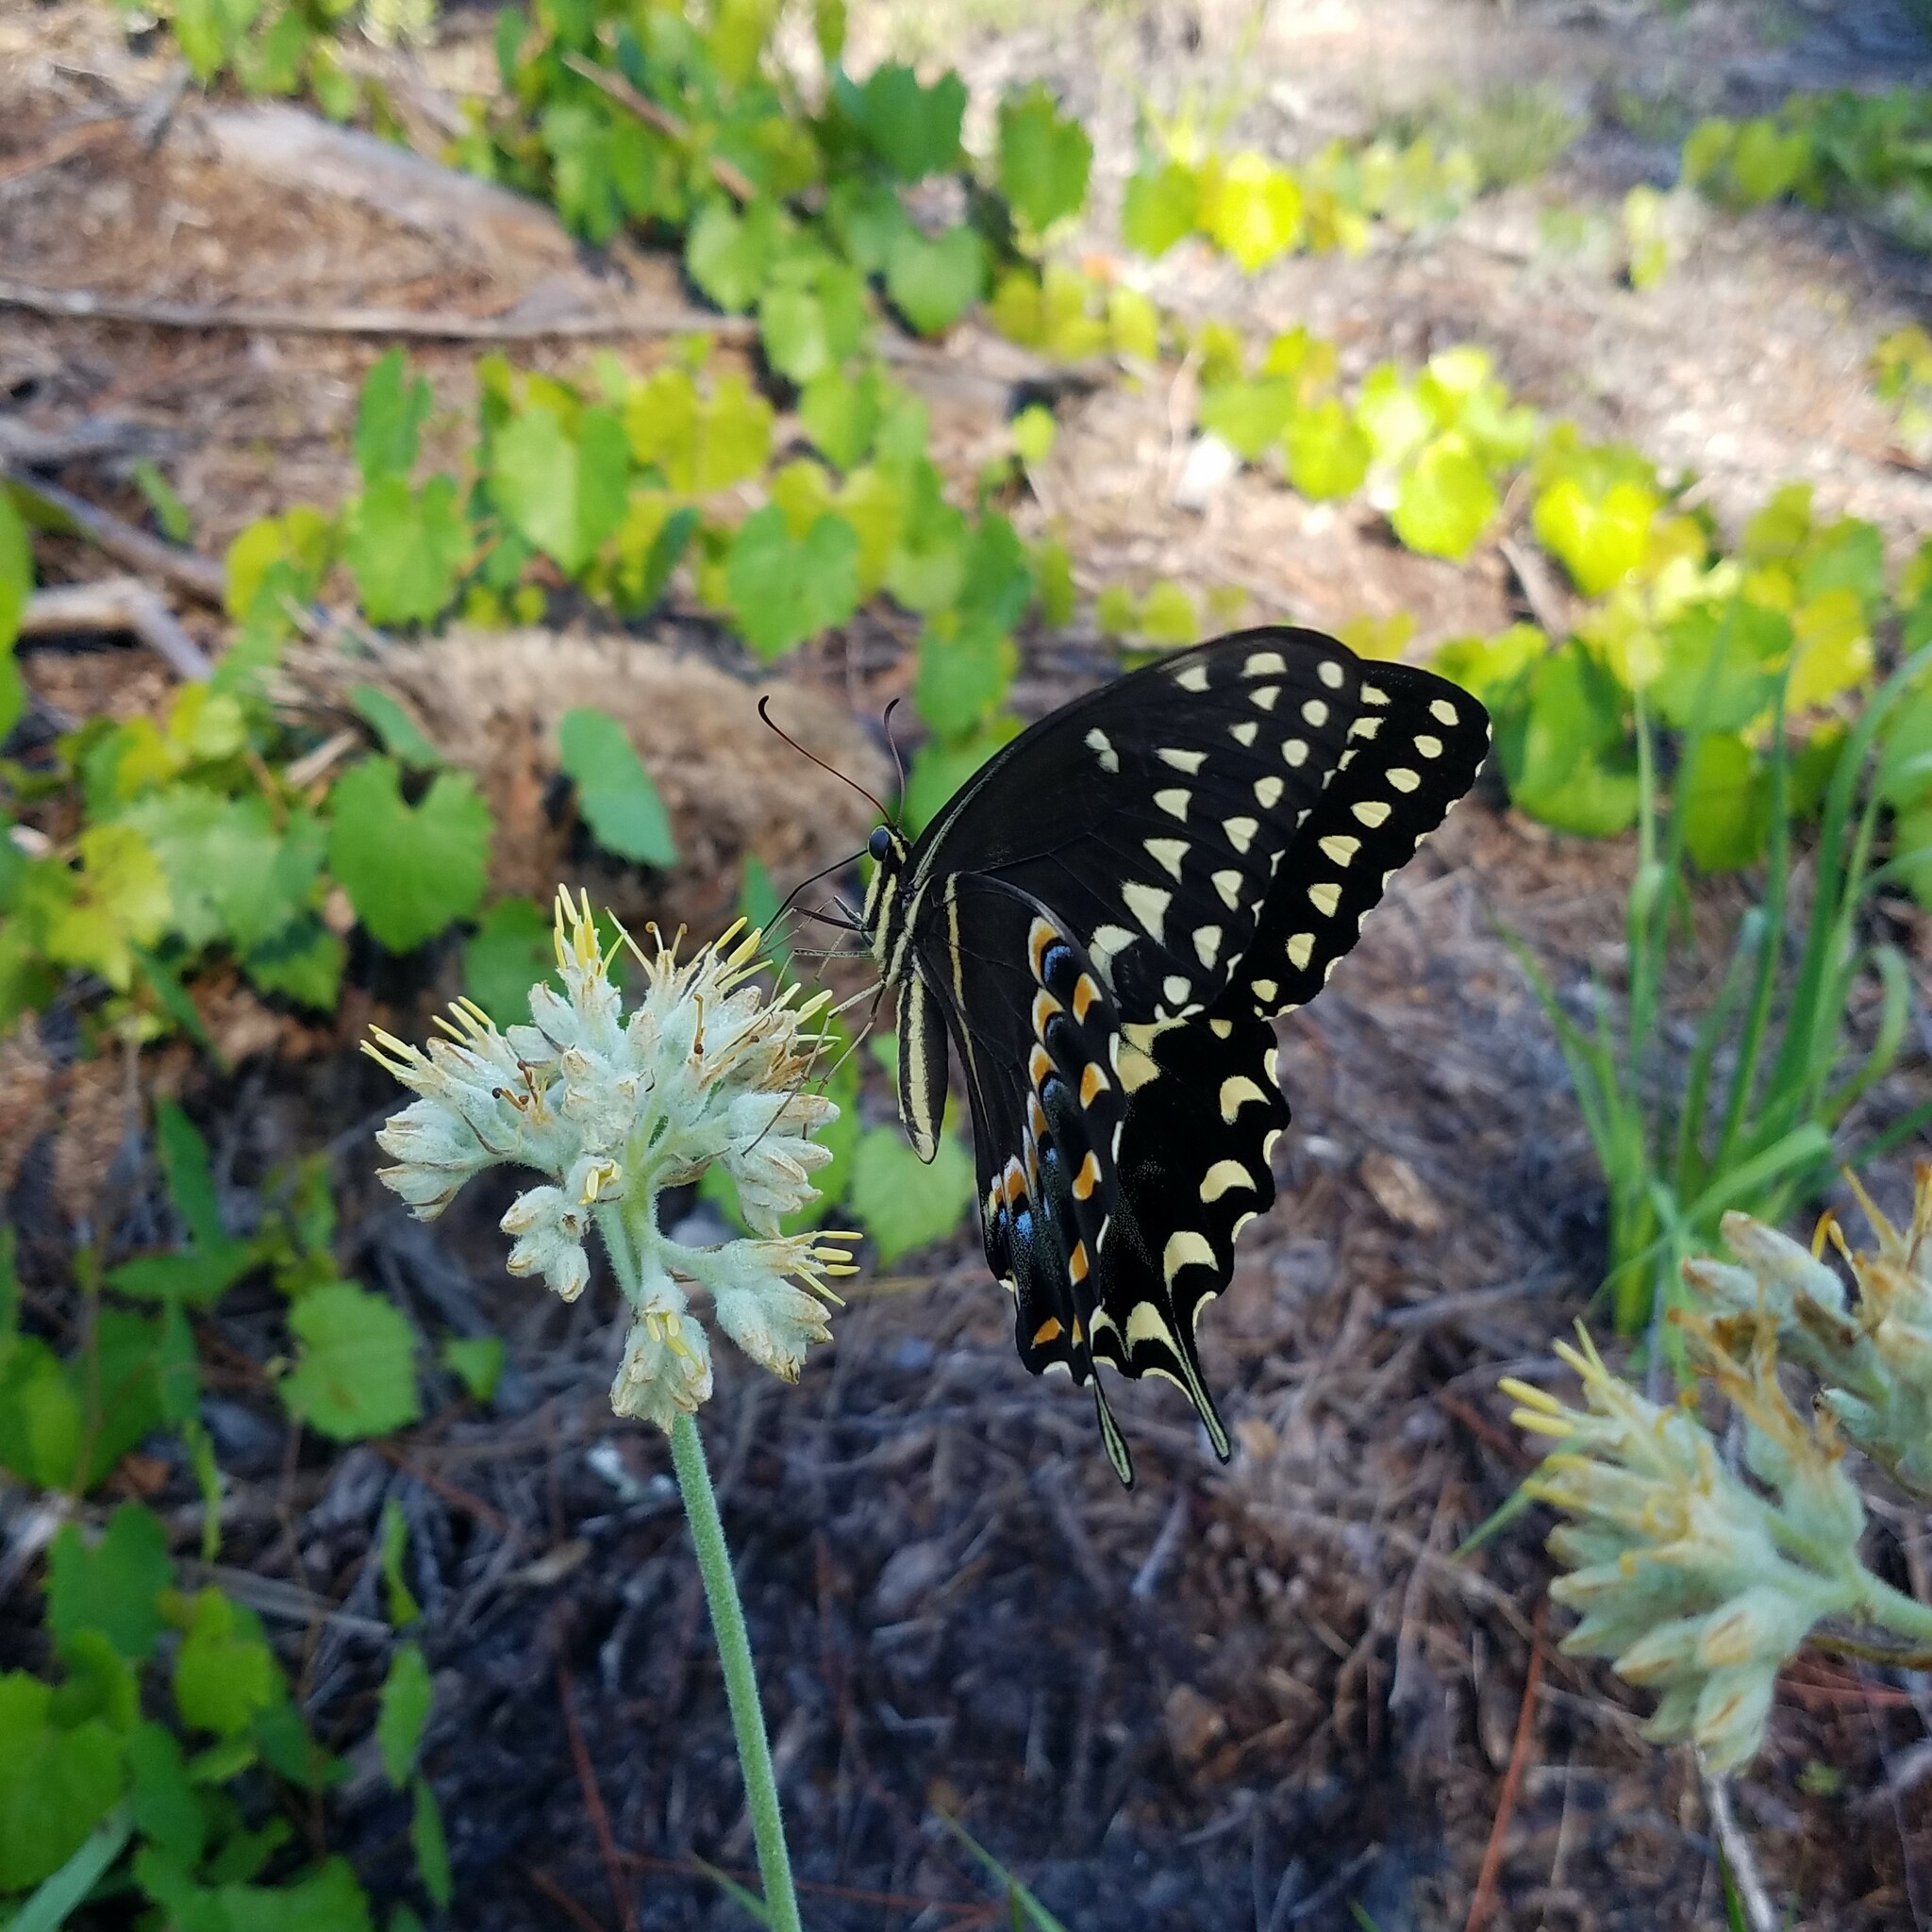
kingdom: Animalia
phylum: Arthropoda
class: Insecta
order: Lepidoptera
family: Papilionidae
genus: Papilio
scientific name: Papilio palamedes
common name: Palamedes swallowtail
